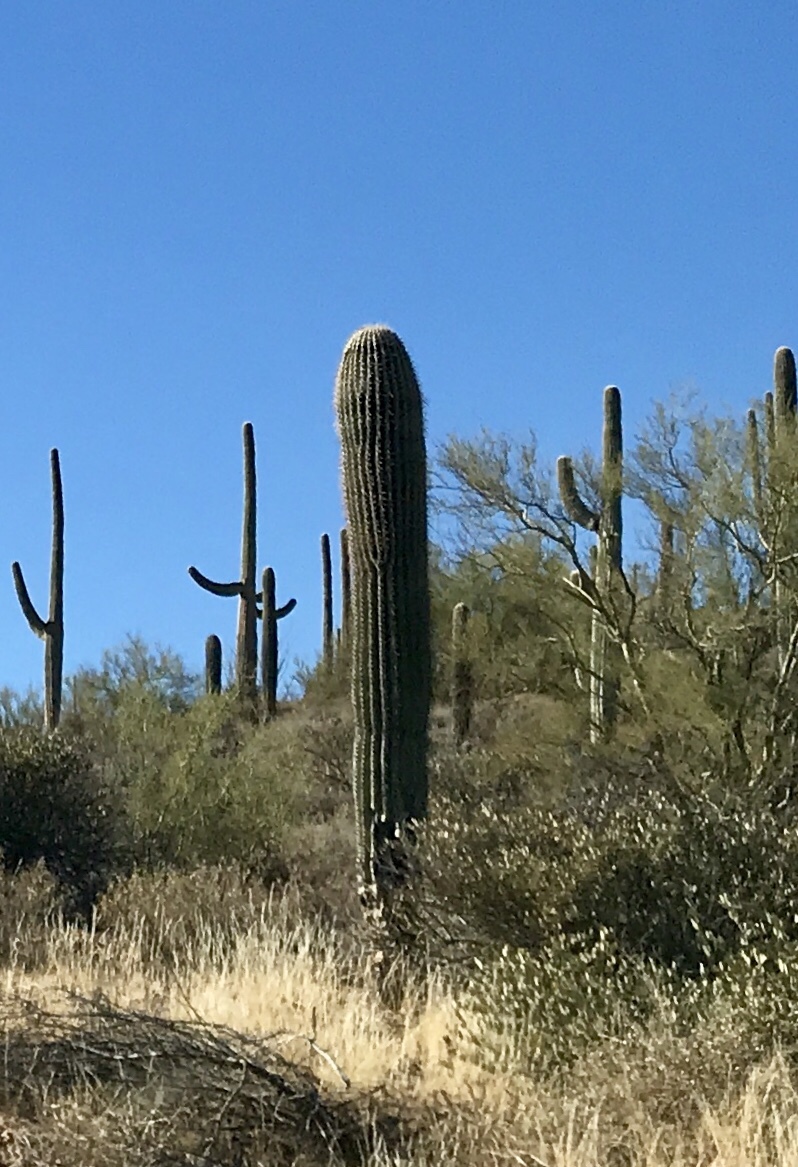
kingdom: Plantae
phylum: Tracheophyta
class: Magnoliopsida
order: Caryophyllales
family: Cactaceae
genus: Carnegiea
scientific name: Carnegiea gigantea
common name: Saguaro
